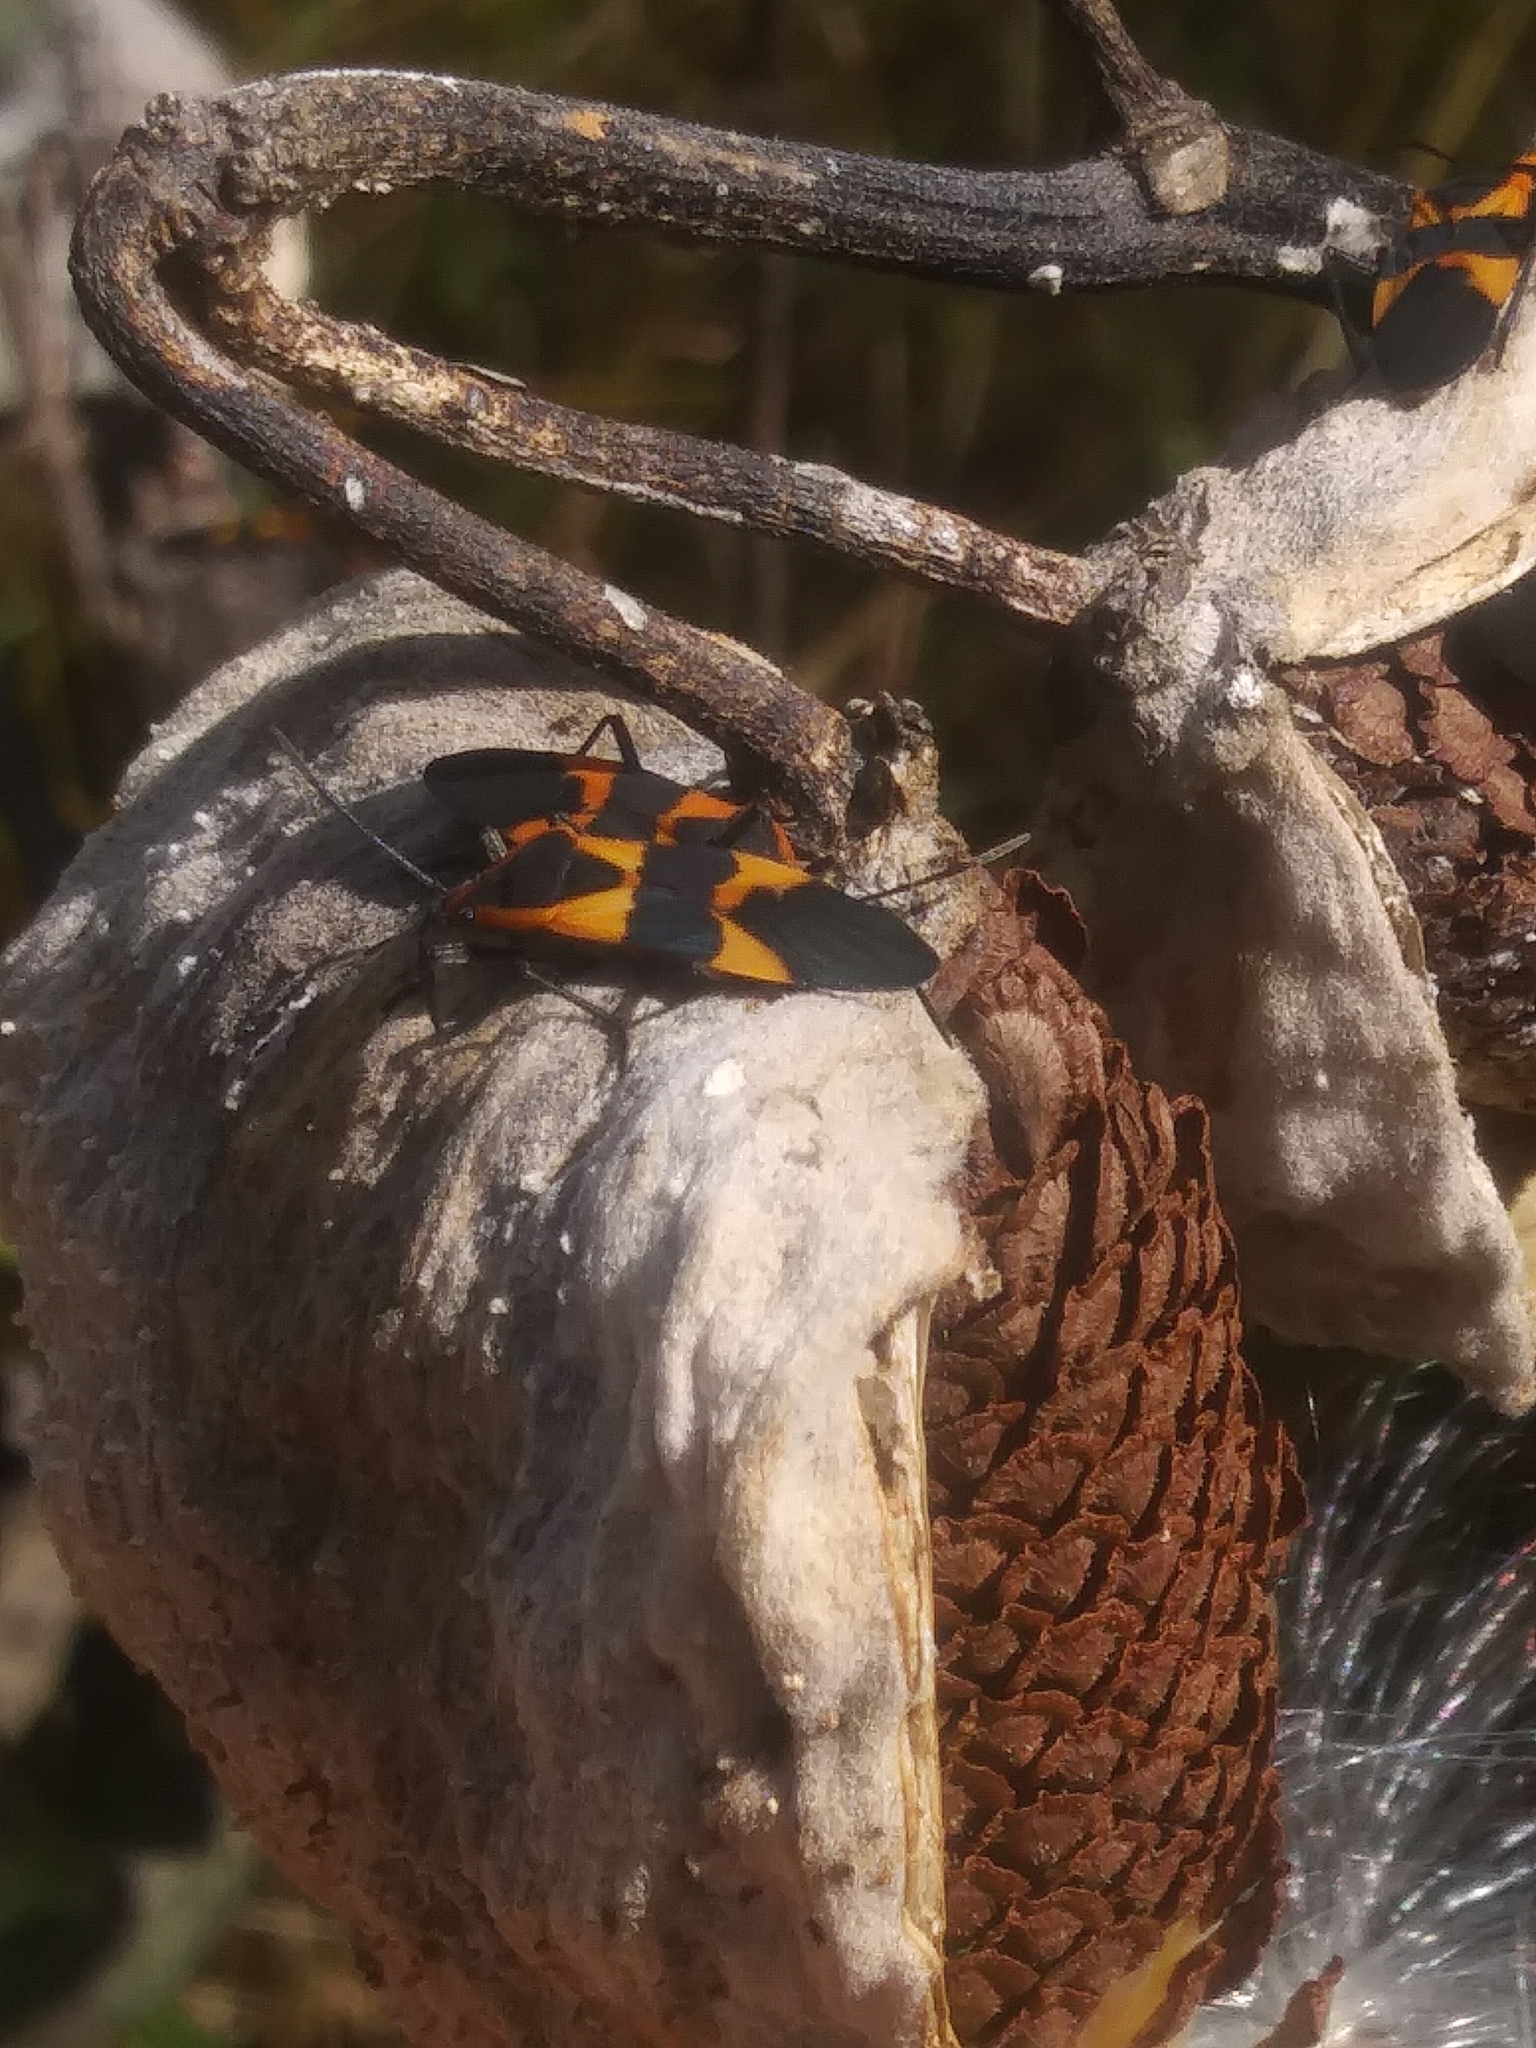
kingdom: Animalia
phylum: Arthropoda
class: Insecta
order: Hemiptera
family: Lygaeidae
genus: Oncopeltus
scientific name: Oncopeltus fasciatus
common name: Large milkweed bug
